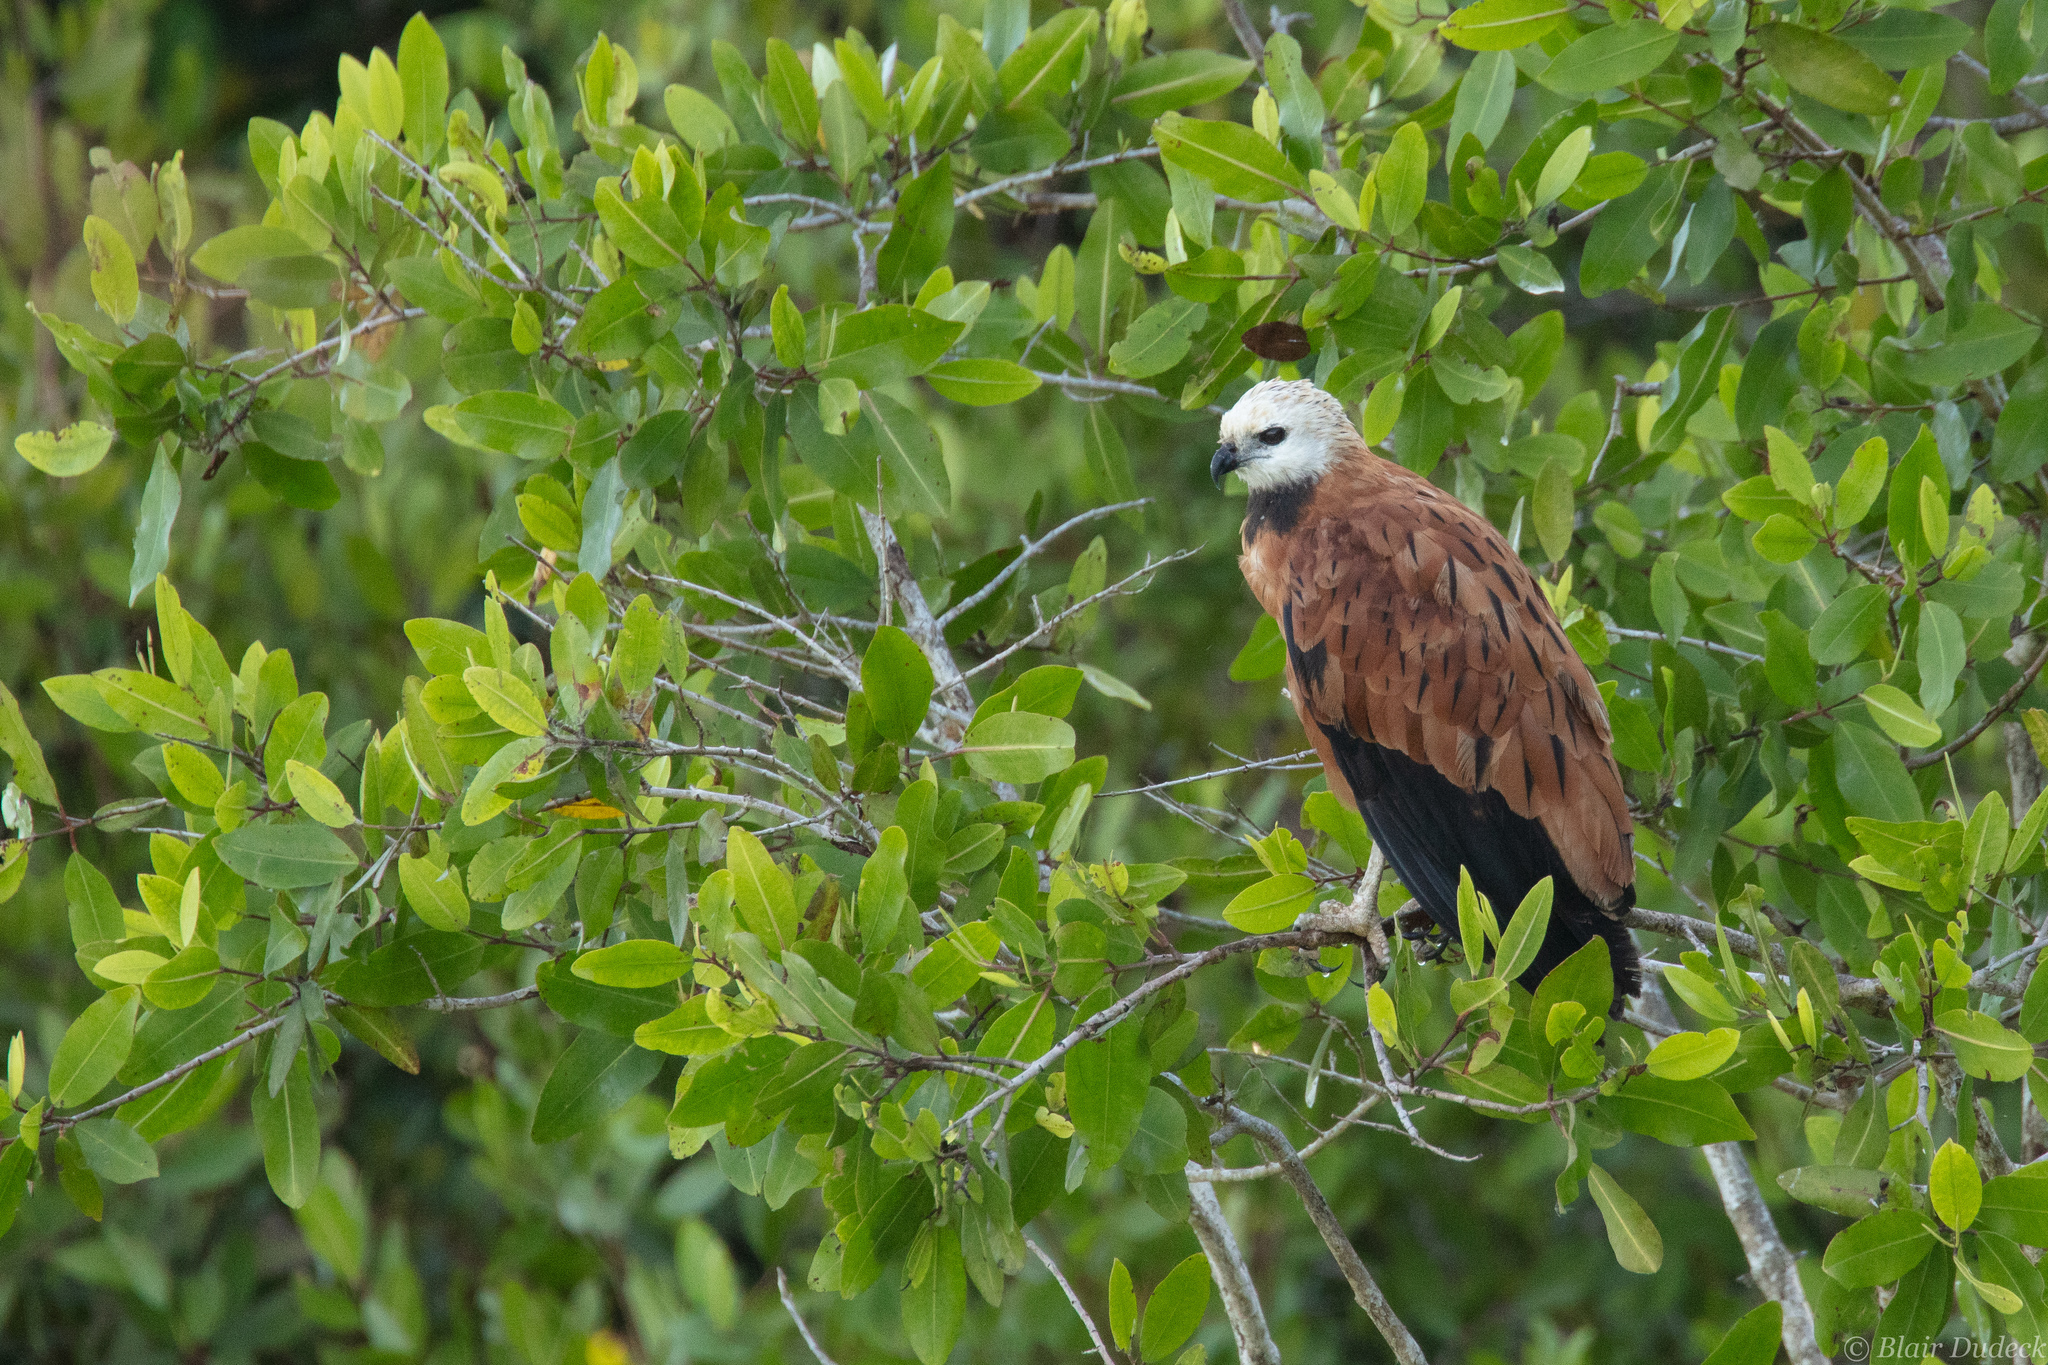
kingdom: Animalia
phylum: Chordata
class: Aves
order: Accipitriformes
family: Accipitridae
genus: Busarellus
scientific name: Busarellus nigricollis
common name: Black-collared hawk
